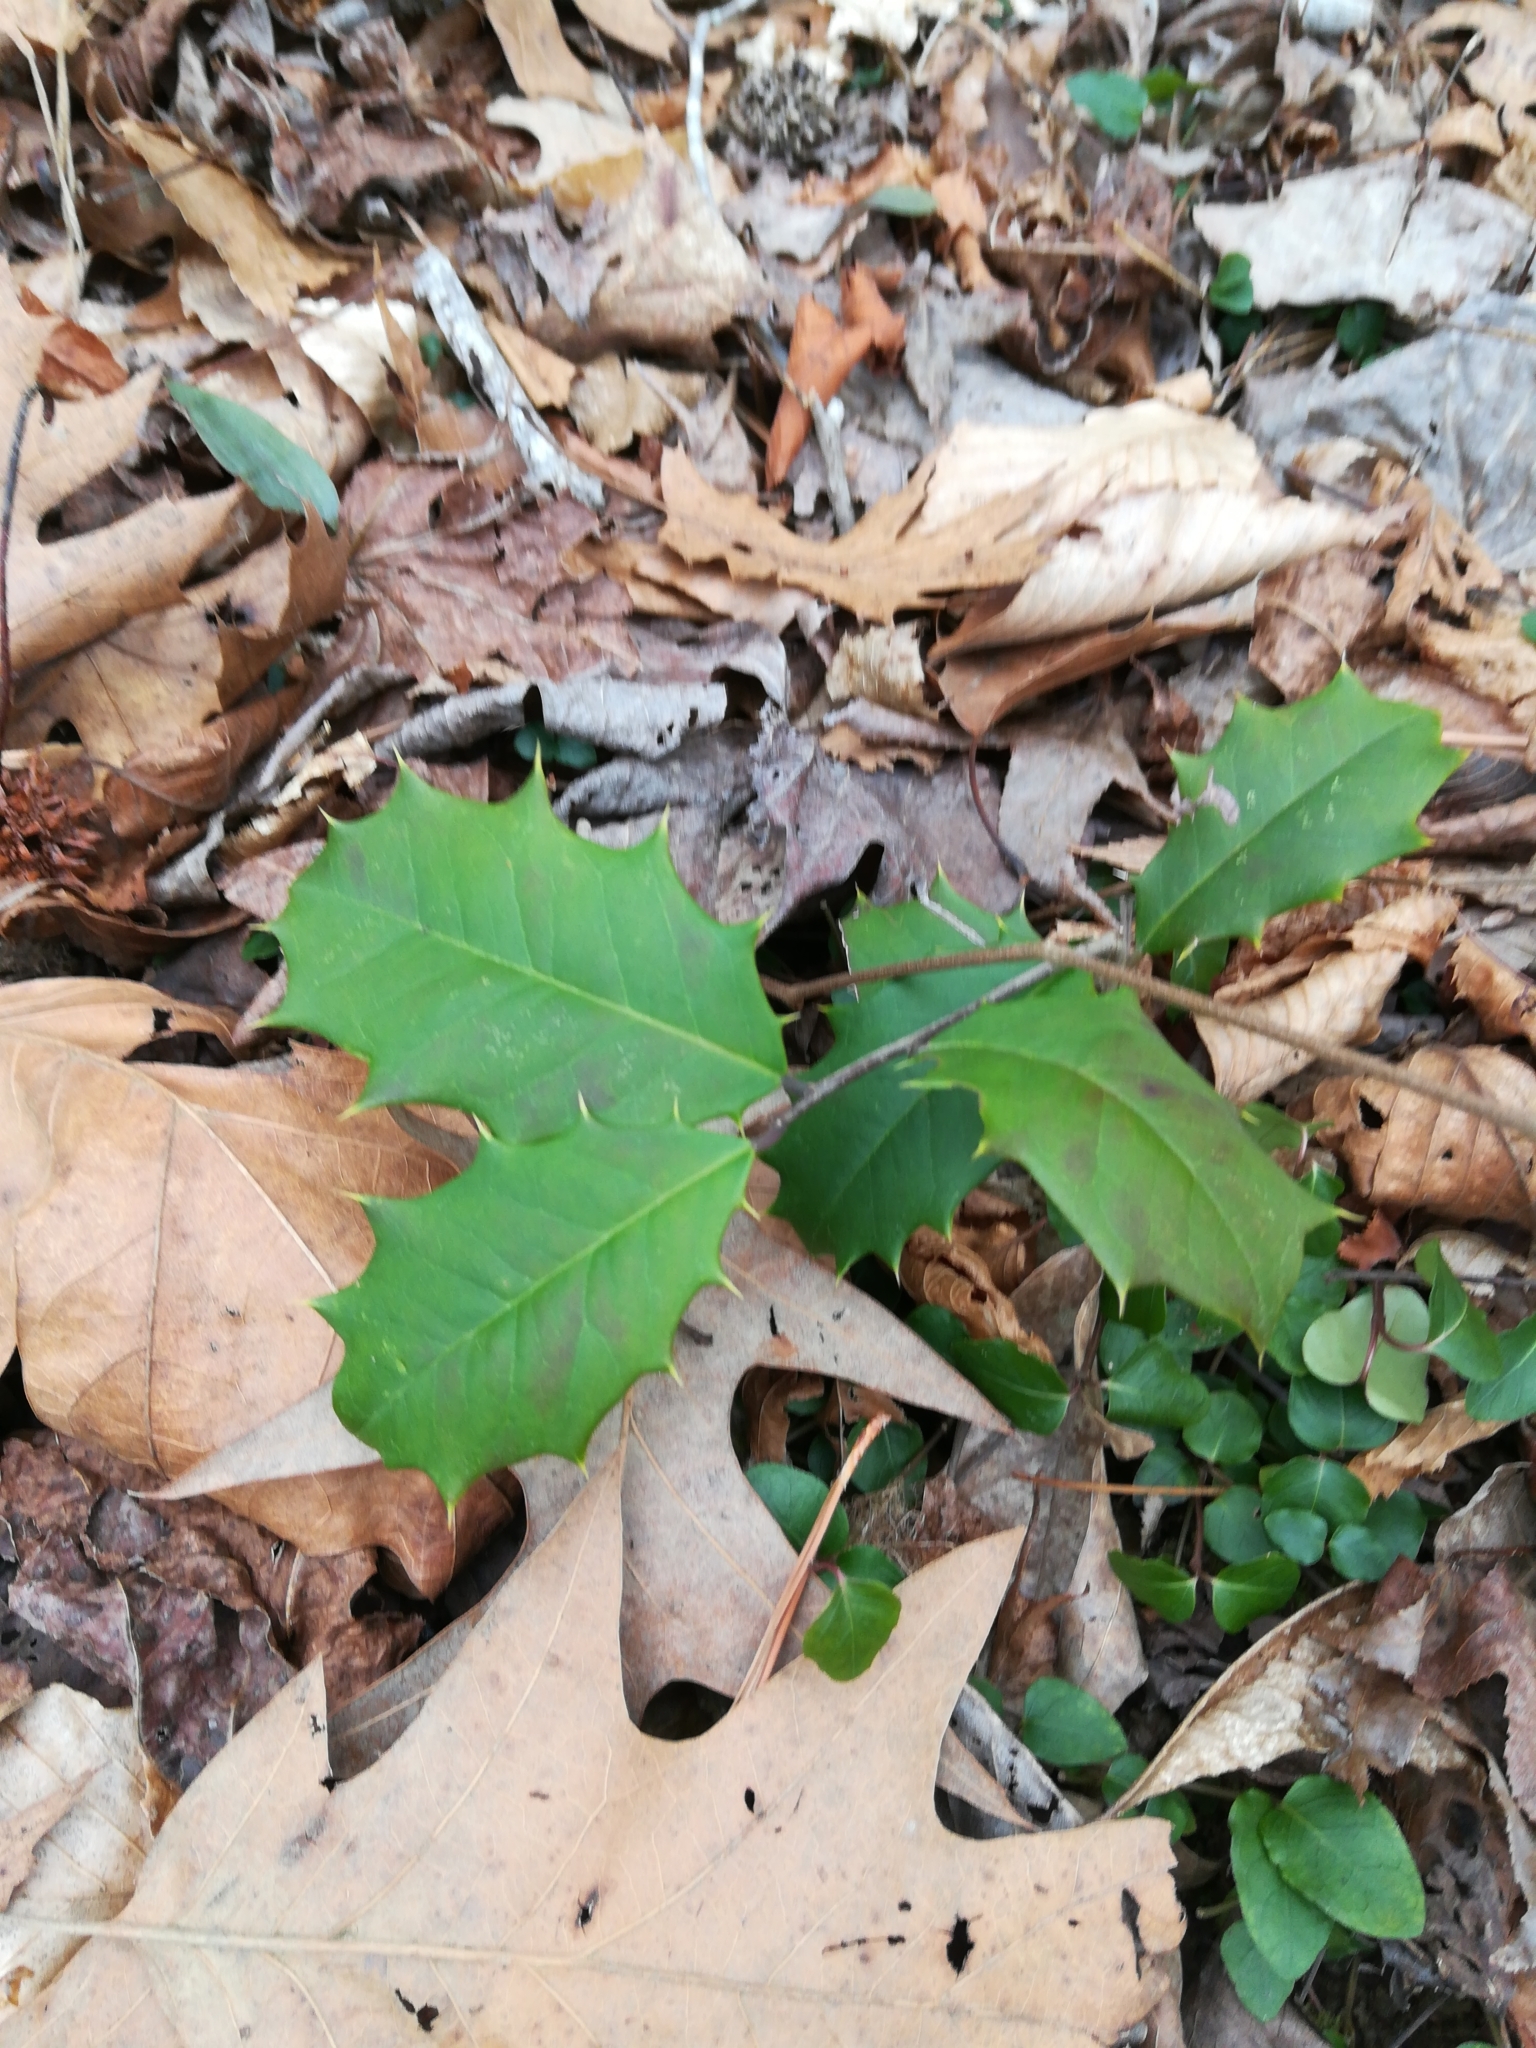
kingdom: Plantae
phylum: Tracheophyta
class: Magnoliopsida
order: Aquifoliales
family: Aquifoliaceae
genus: Ilex
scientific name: Ilex opaca
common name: American holly
